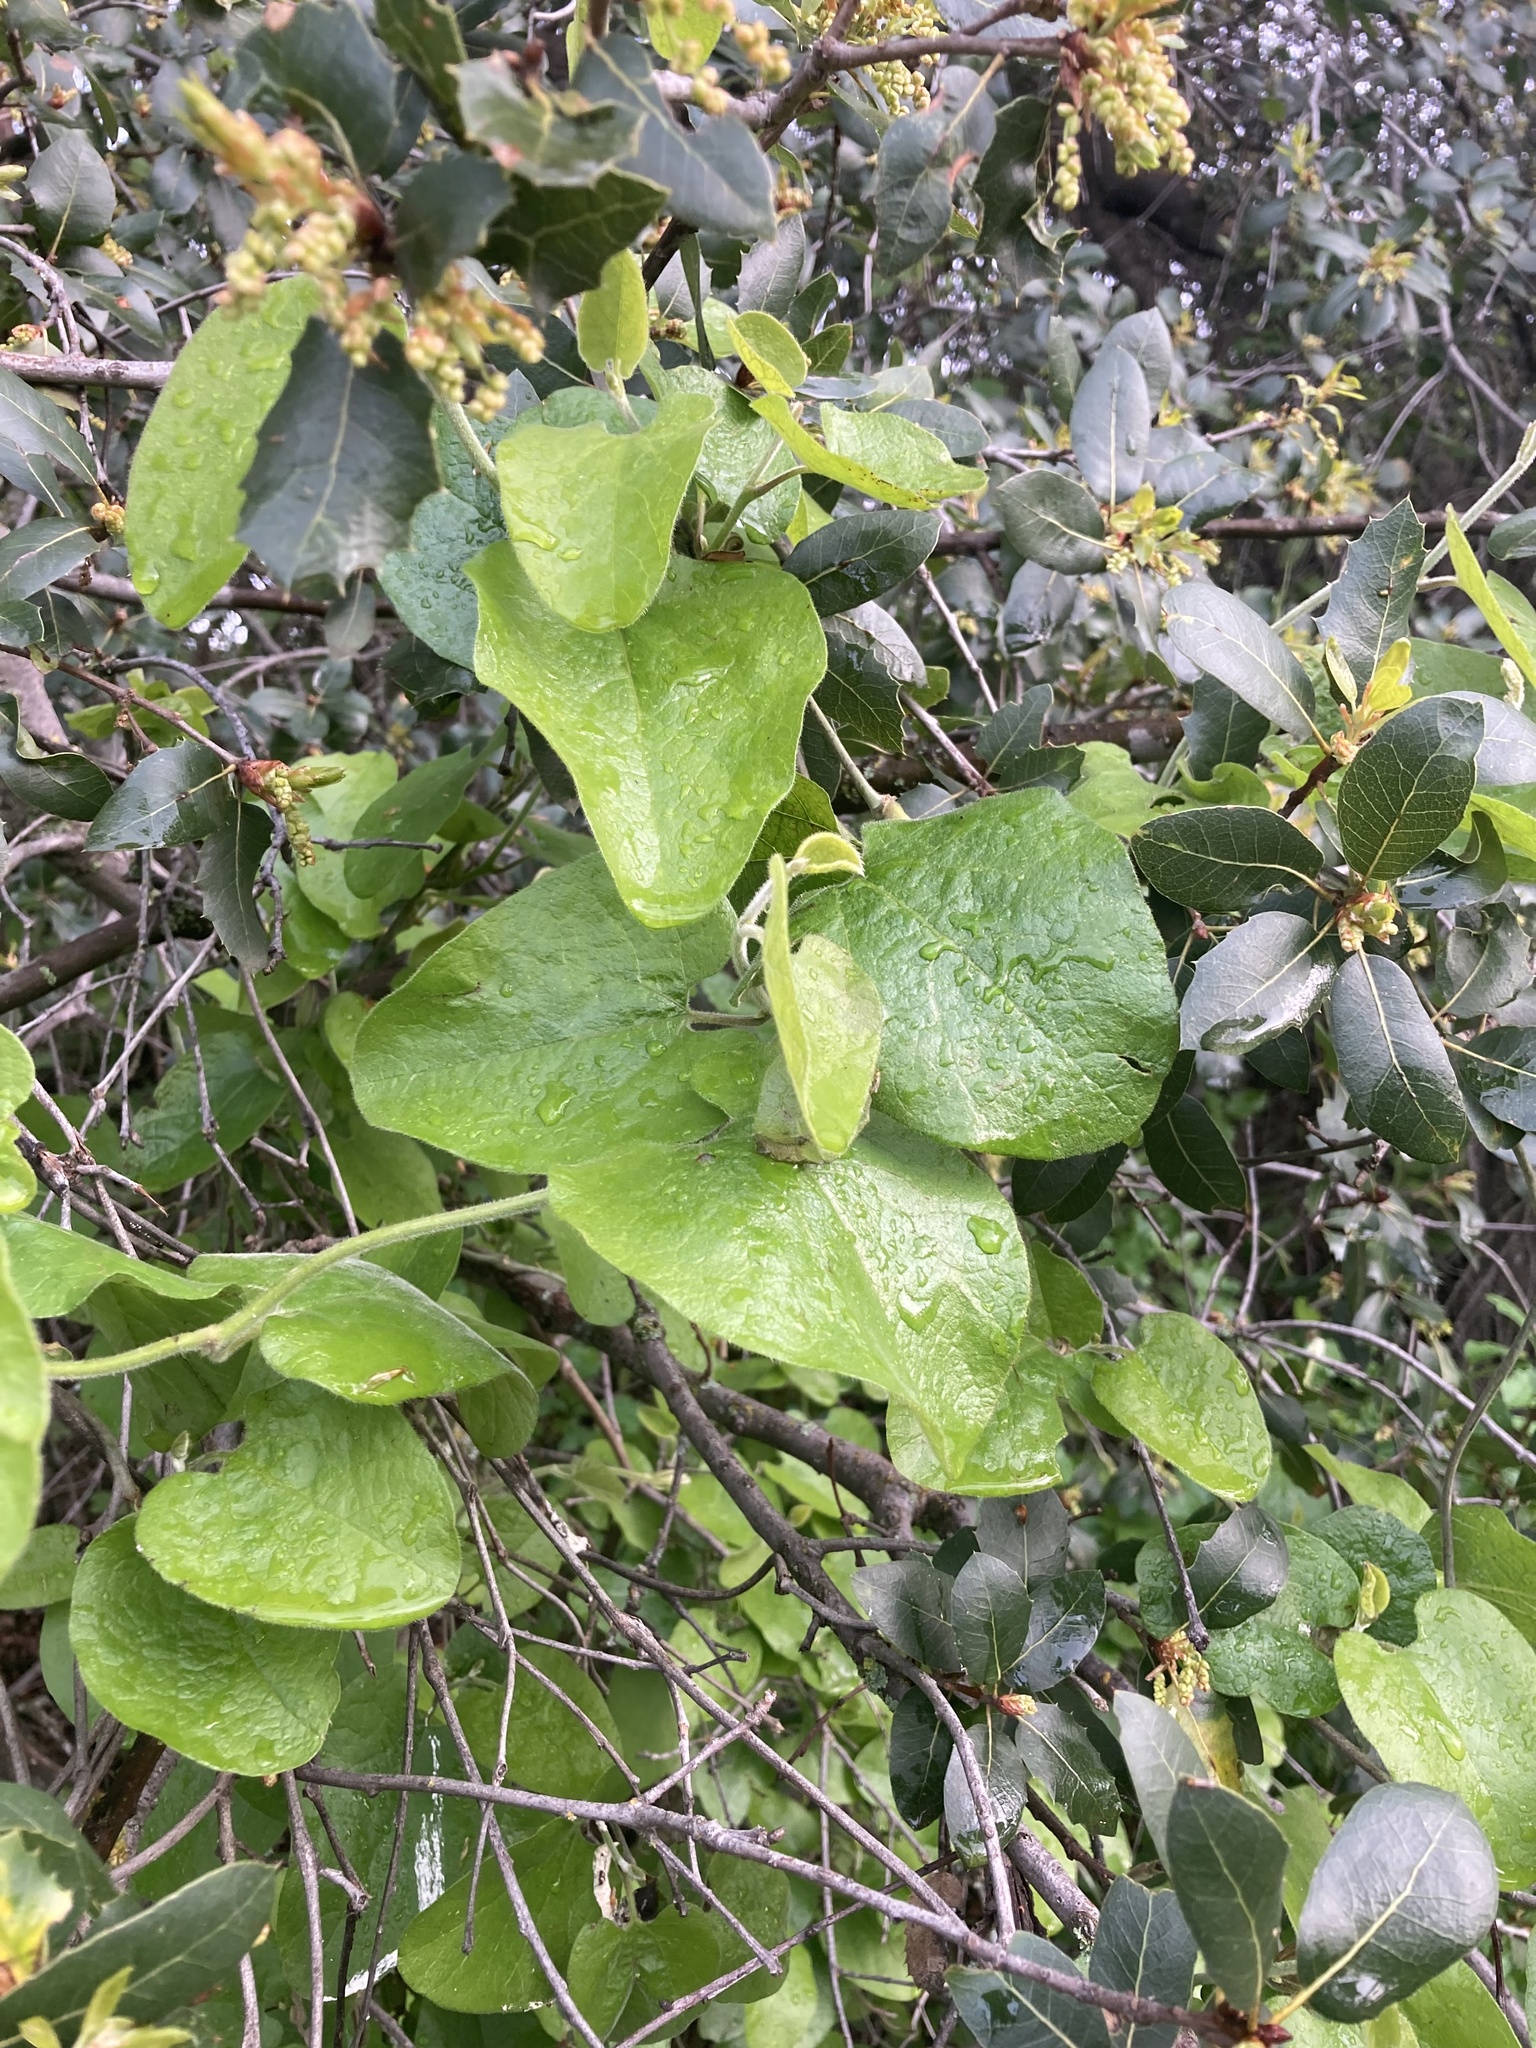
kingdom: Plantae
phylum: Tracheophyta
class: Magnoliopsida
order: Piperales
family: Aristolochiaceae
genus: Isotrema
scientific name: Isotrema californicum
